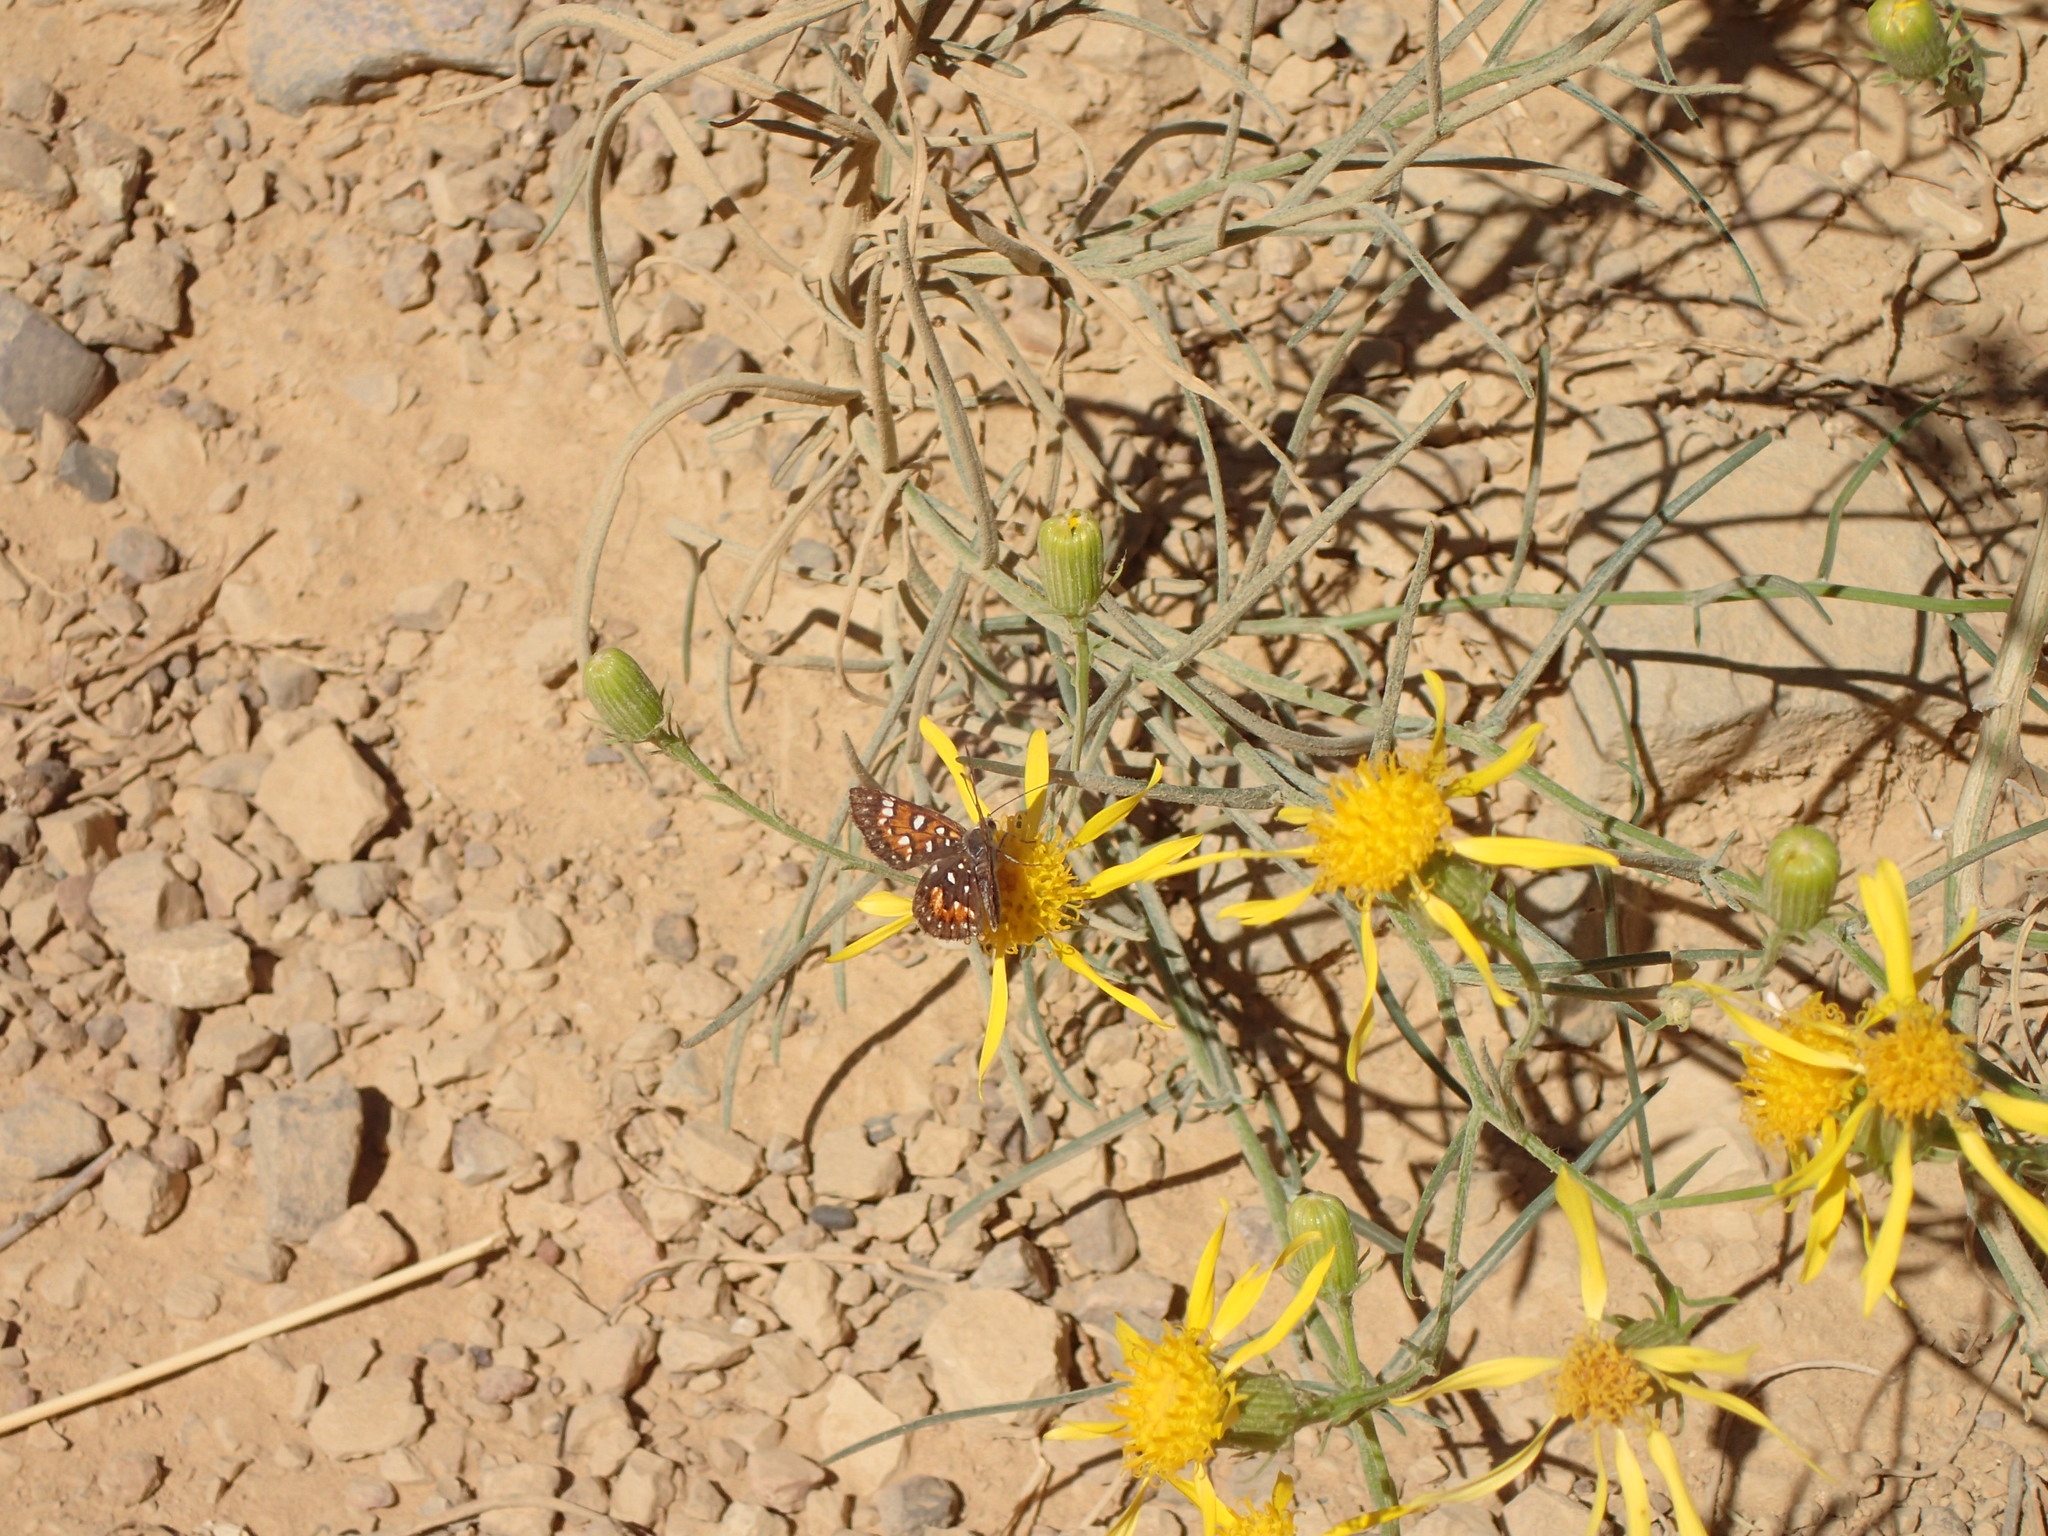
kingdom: Plantae
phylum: Tracheophyta
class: Magnoliopsida
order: Asterales
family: Asteraceae
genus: Senecio
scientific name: Senecio flaccidus
